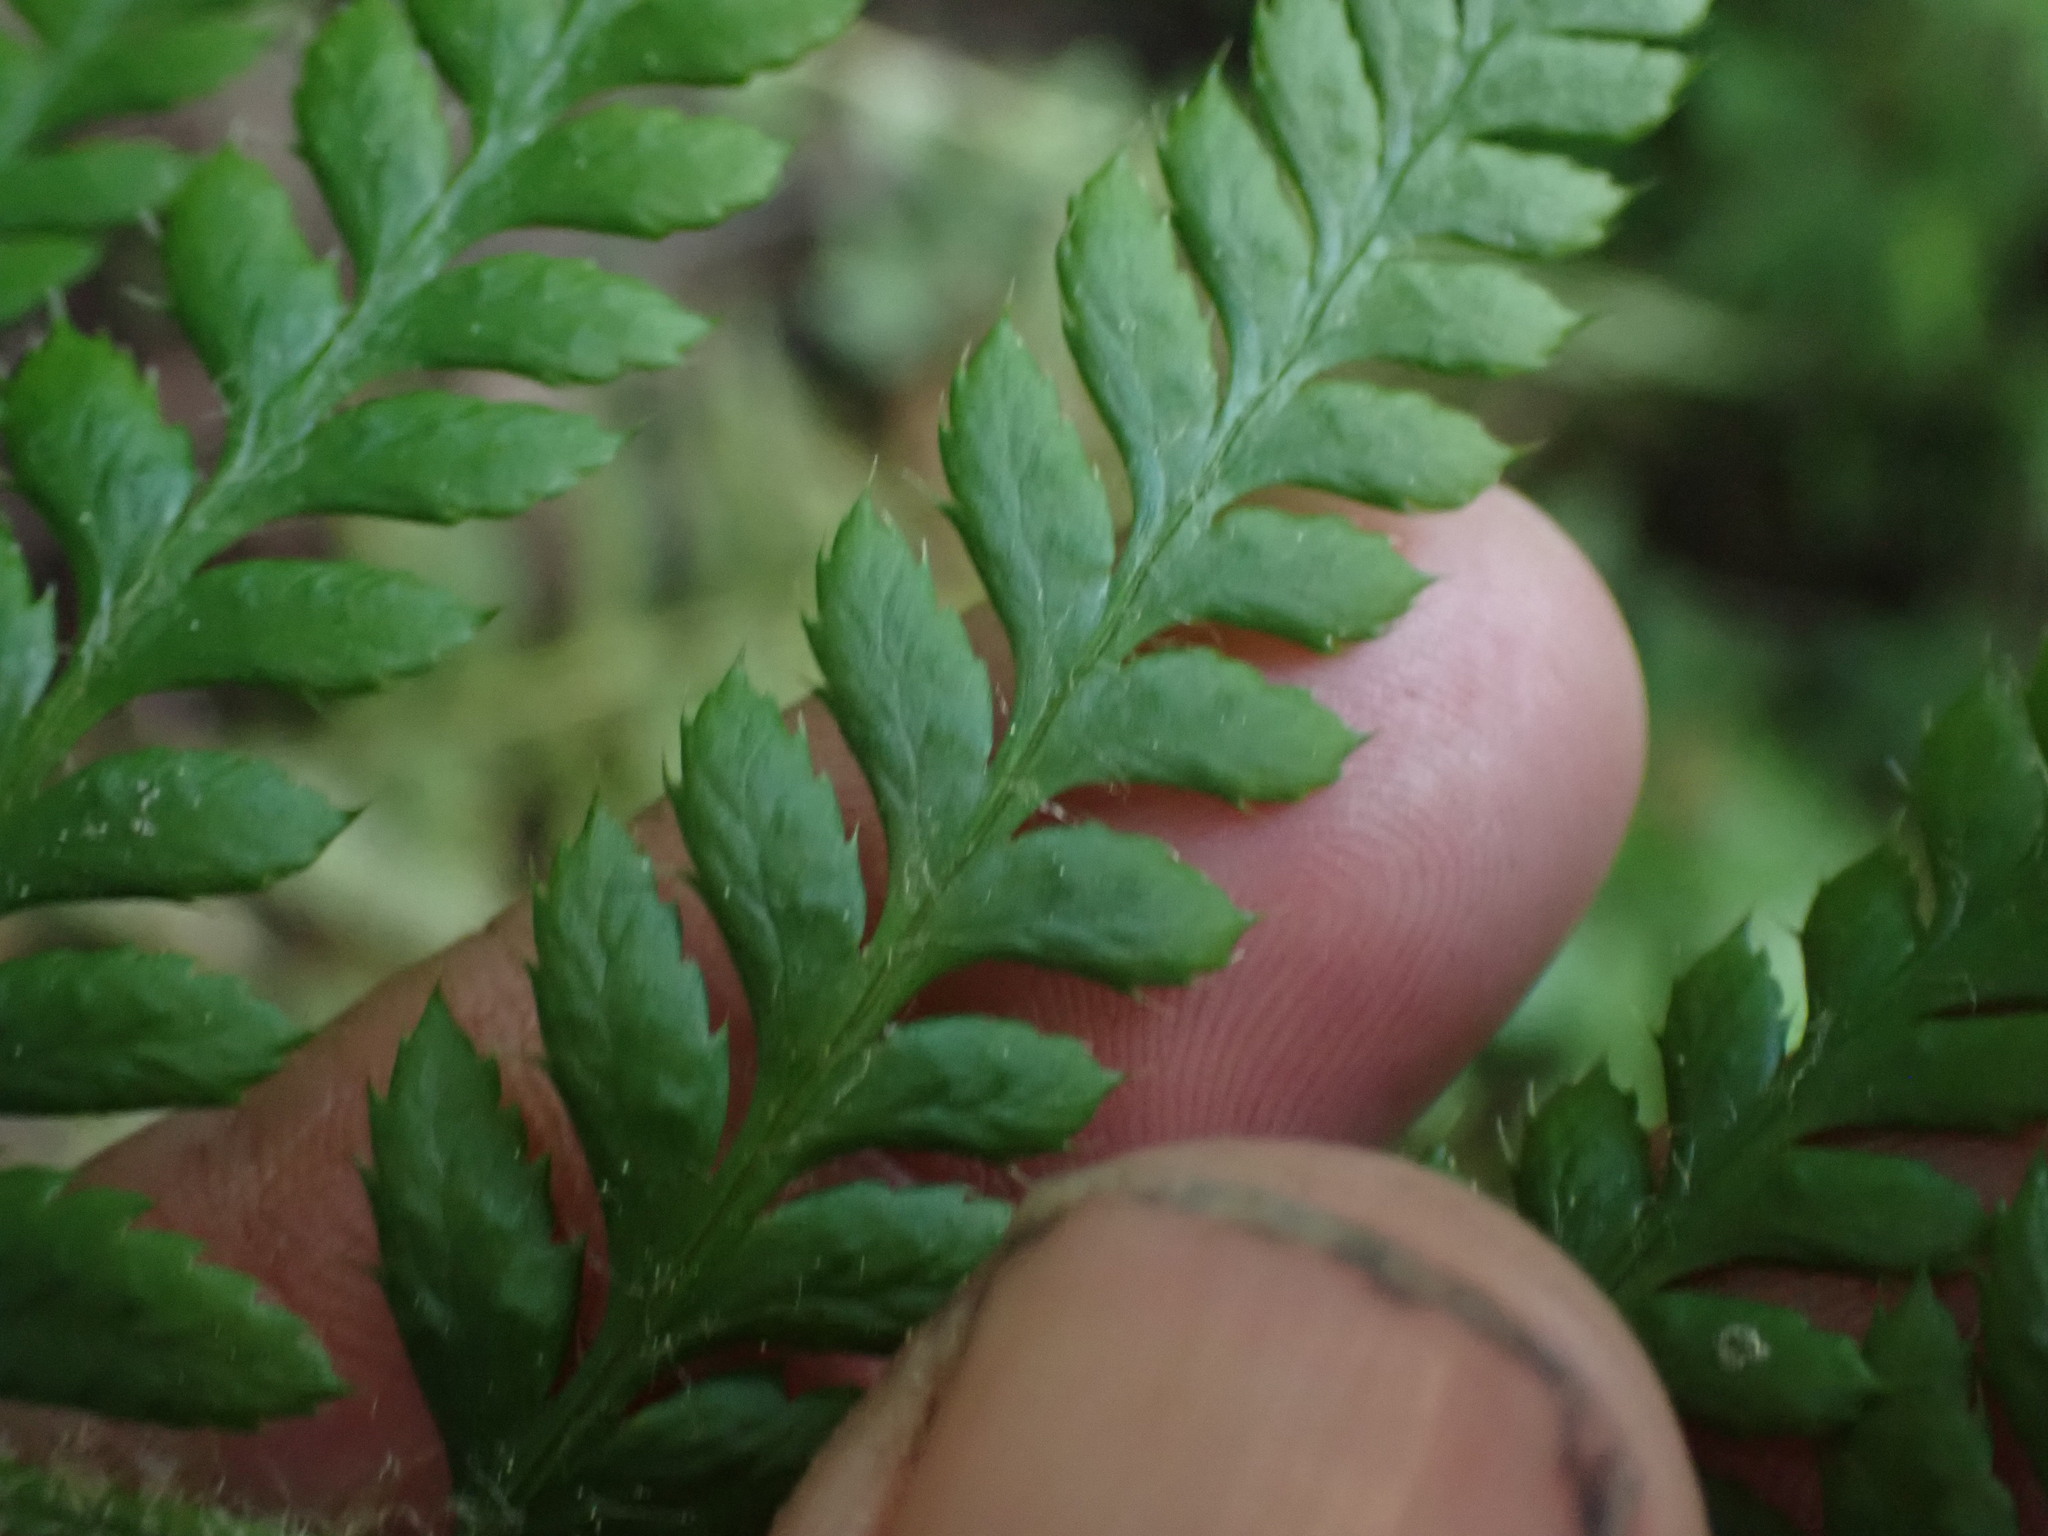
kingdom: Plantae
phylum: Tracheophyta
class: Polypodiopsida
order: Polypodiales
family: Dryopteridaceae
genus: Polystichum
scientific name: Polystichum andersonii
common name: Anderson's holly fern
